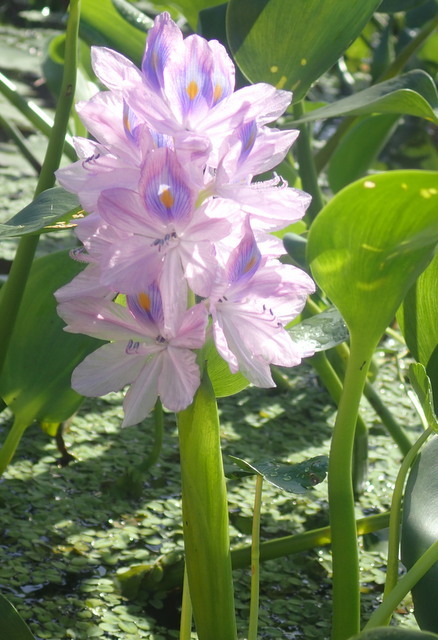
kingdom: Plantae
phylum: Tracheophyta
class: Liliopsida
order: Commelinales
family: Pontederiaceae
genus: Pontederia
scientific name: Pontederia crassipes
